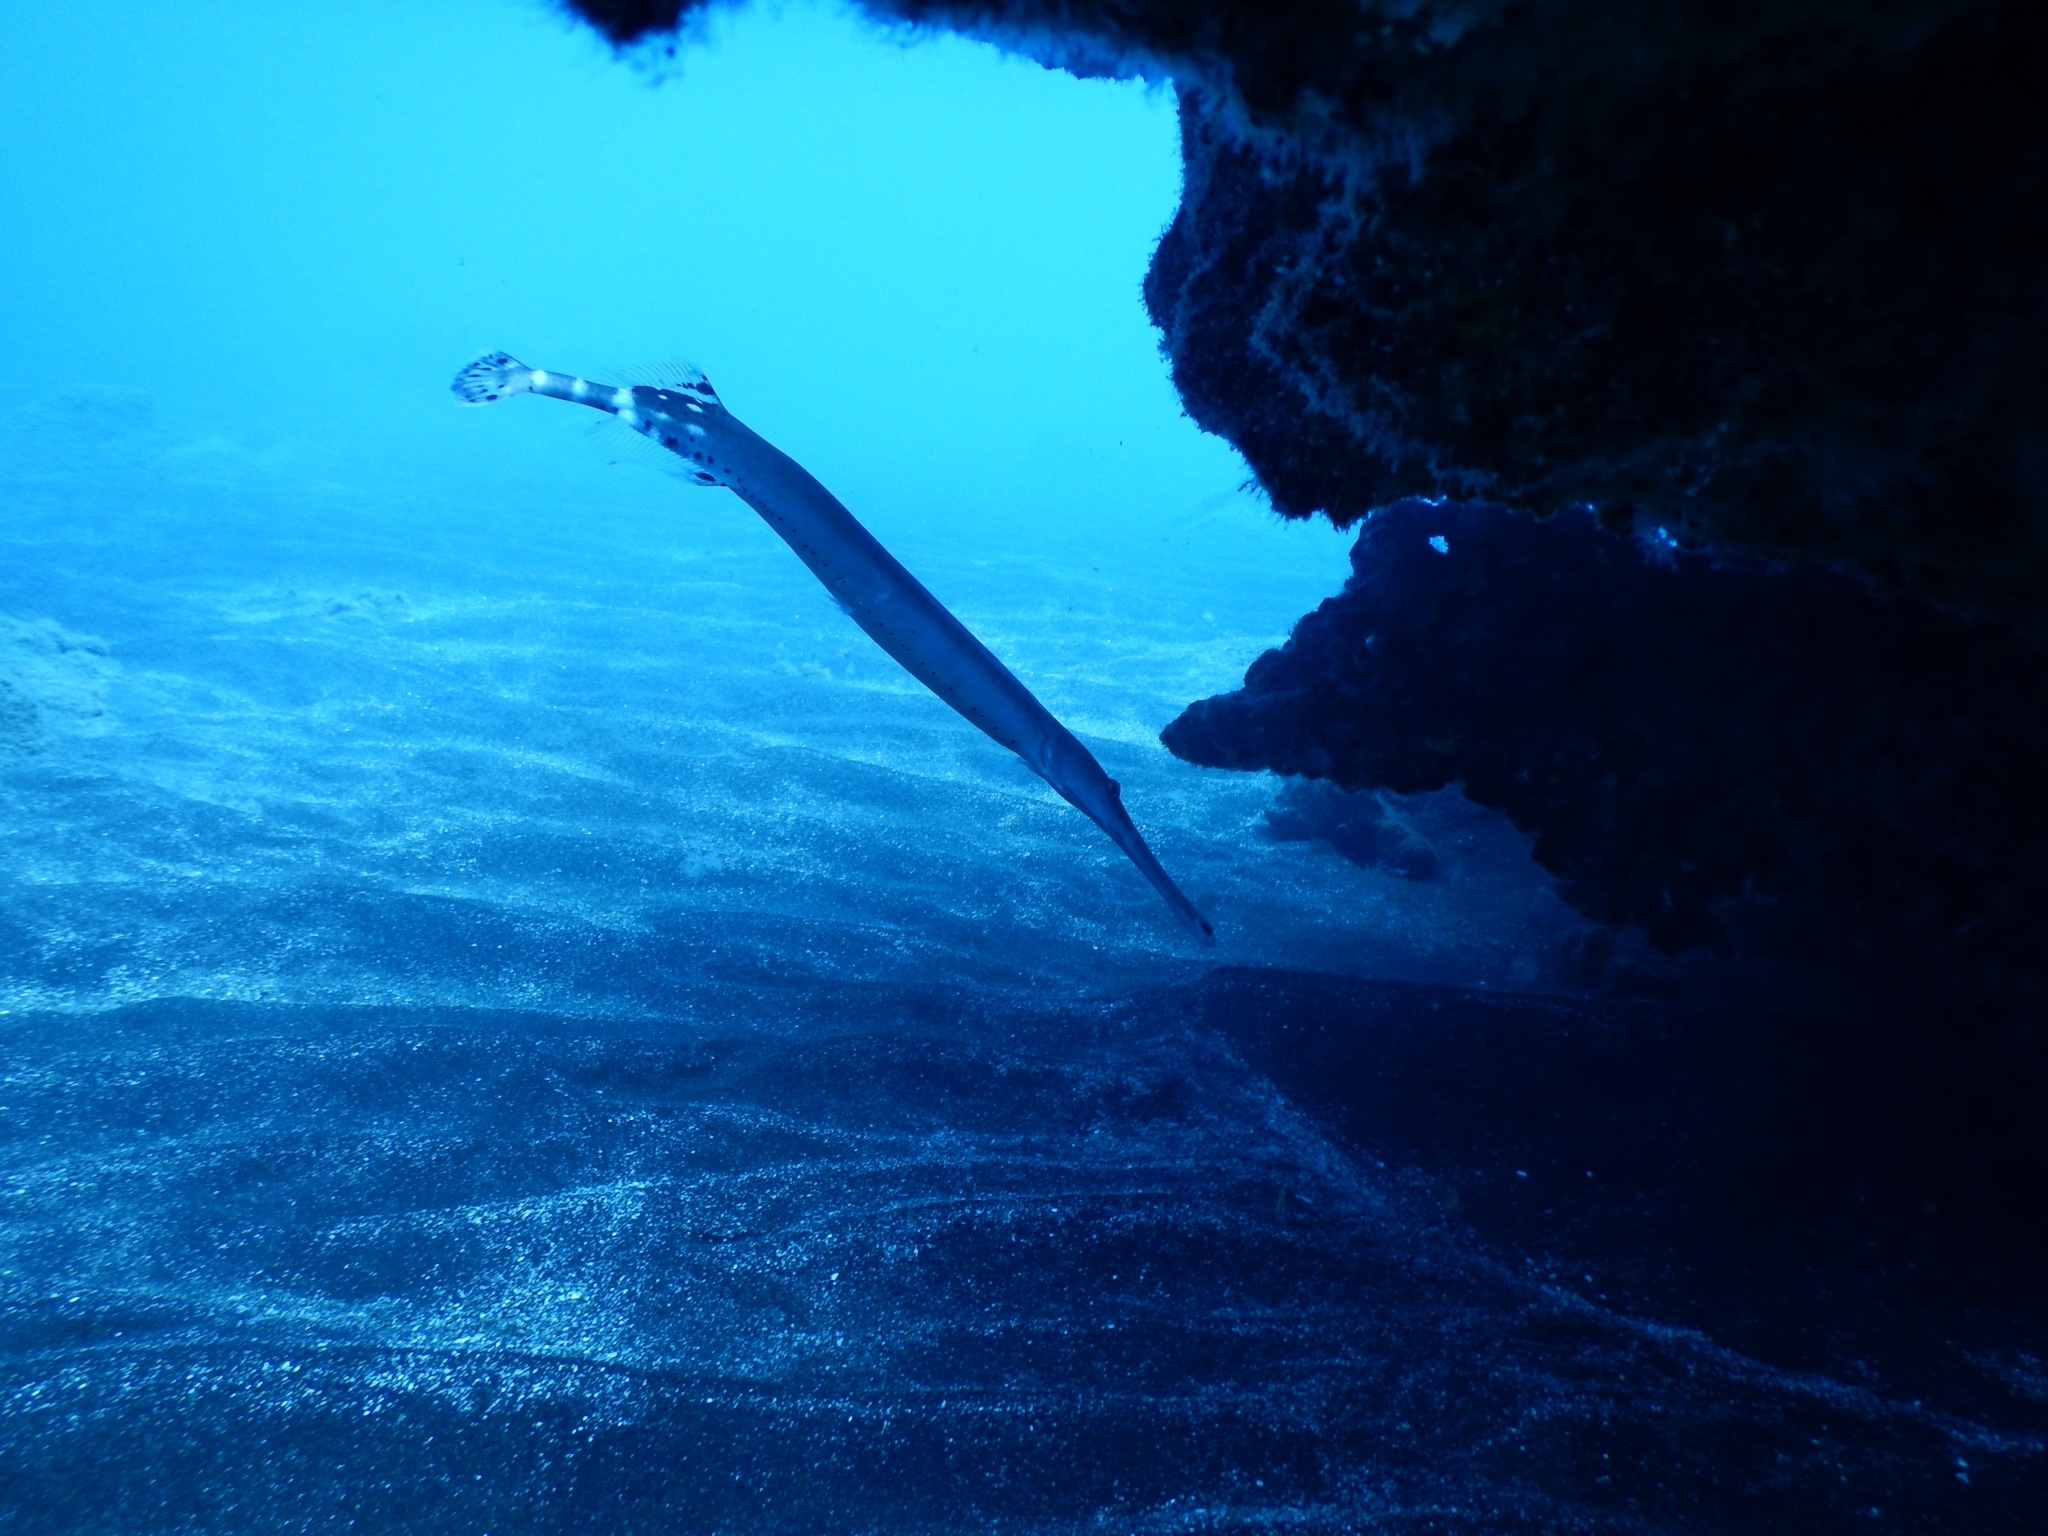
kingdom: Animalia
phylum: Chordata
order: Syngnathiformes
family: Aulostomidae
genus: Aulostomus
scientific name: Aulostomus strigosus
